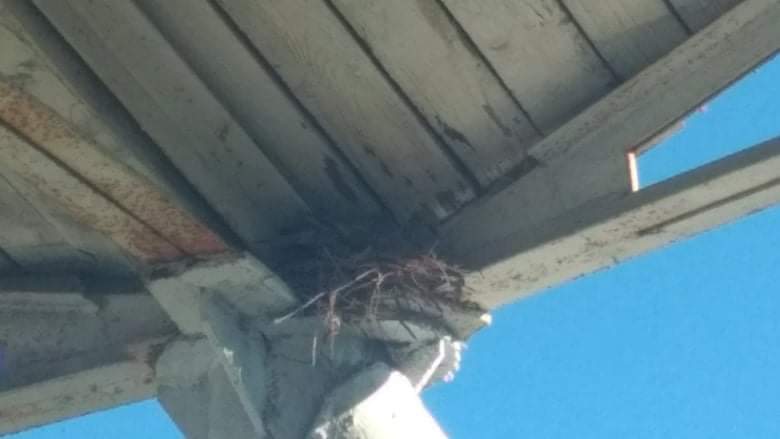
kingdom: Animalia
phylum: Chordata
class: Aves
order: Columbiformes
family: Columbidae
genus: Streptopelia
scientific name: Streptopelia decaocto
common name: Eurasian collared dove
